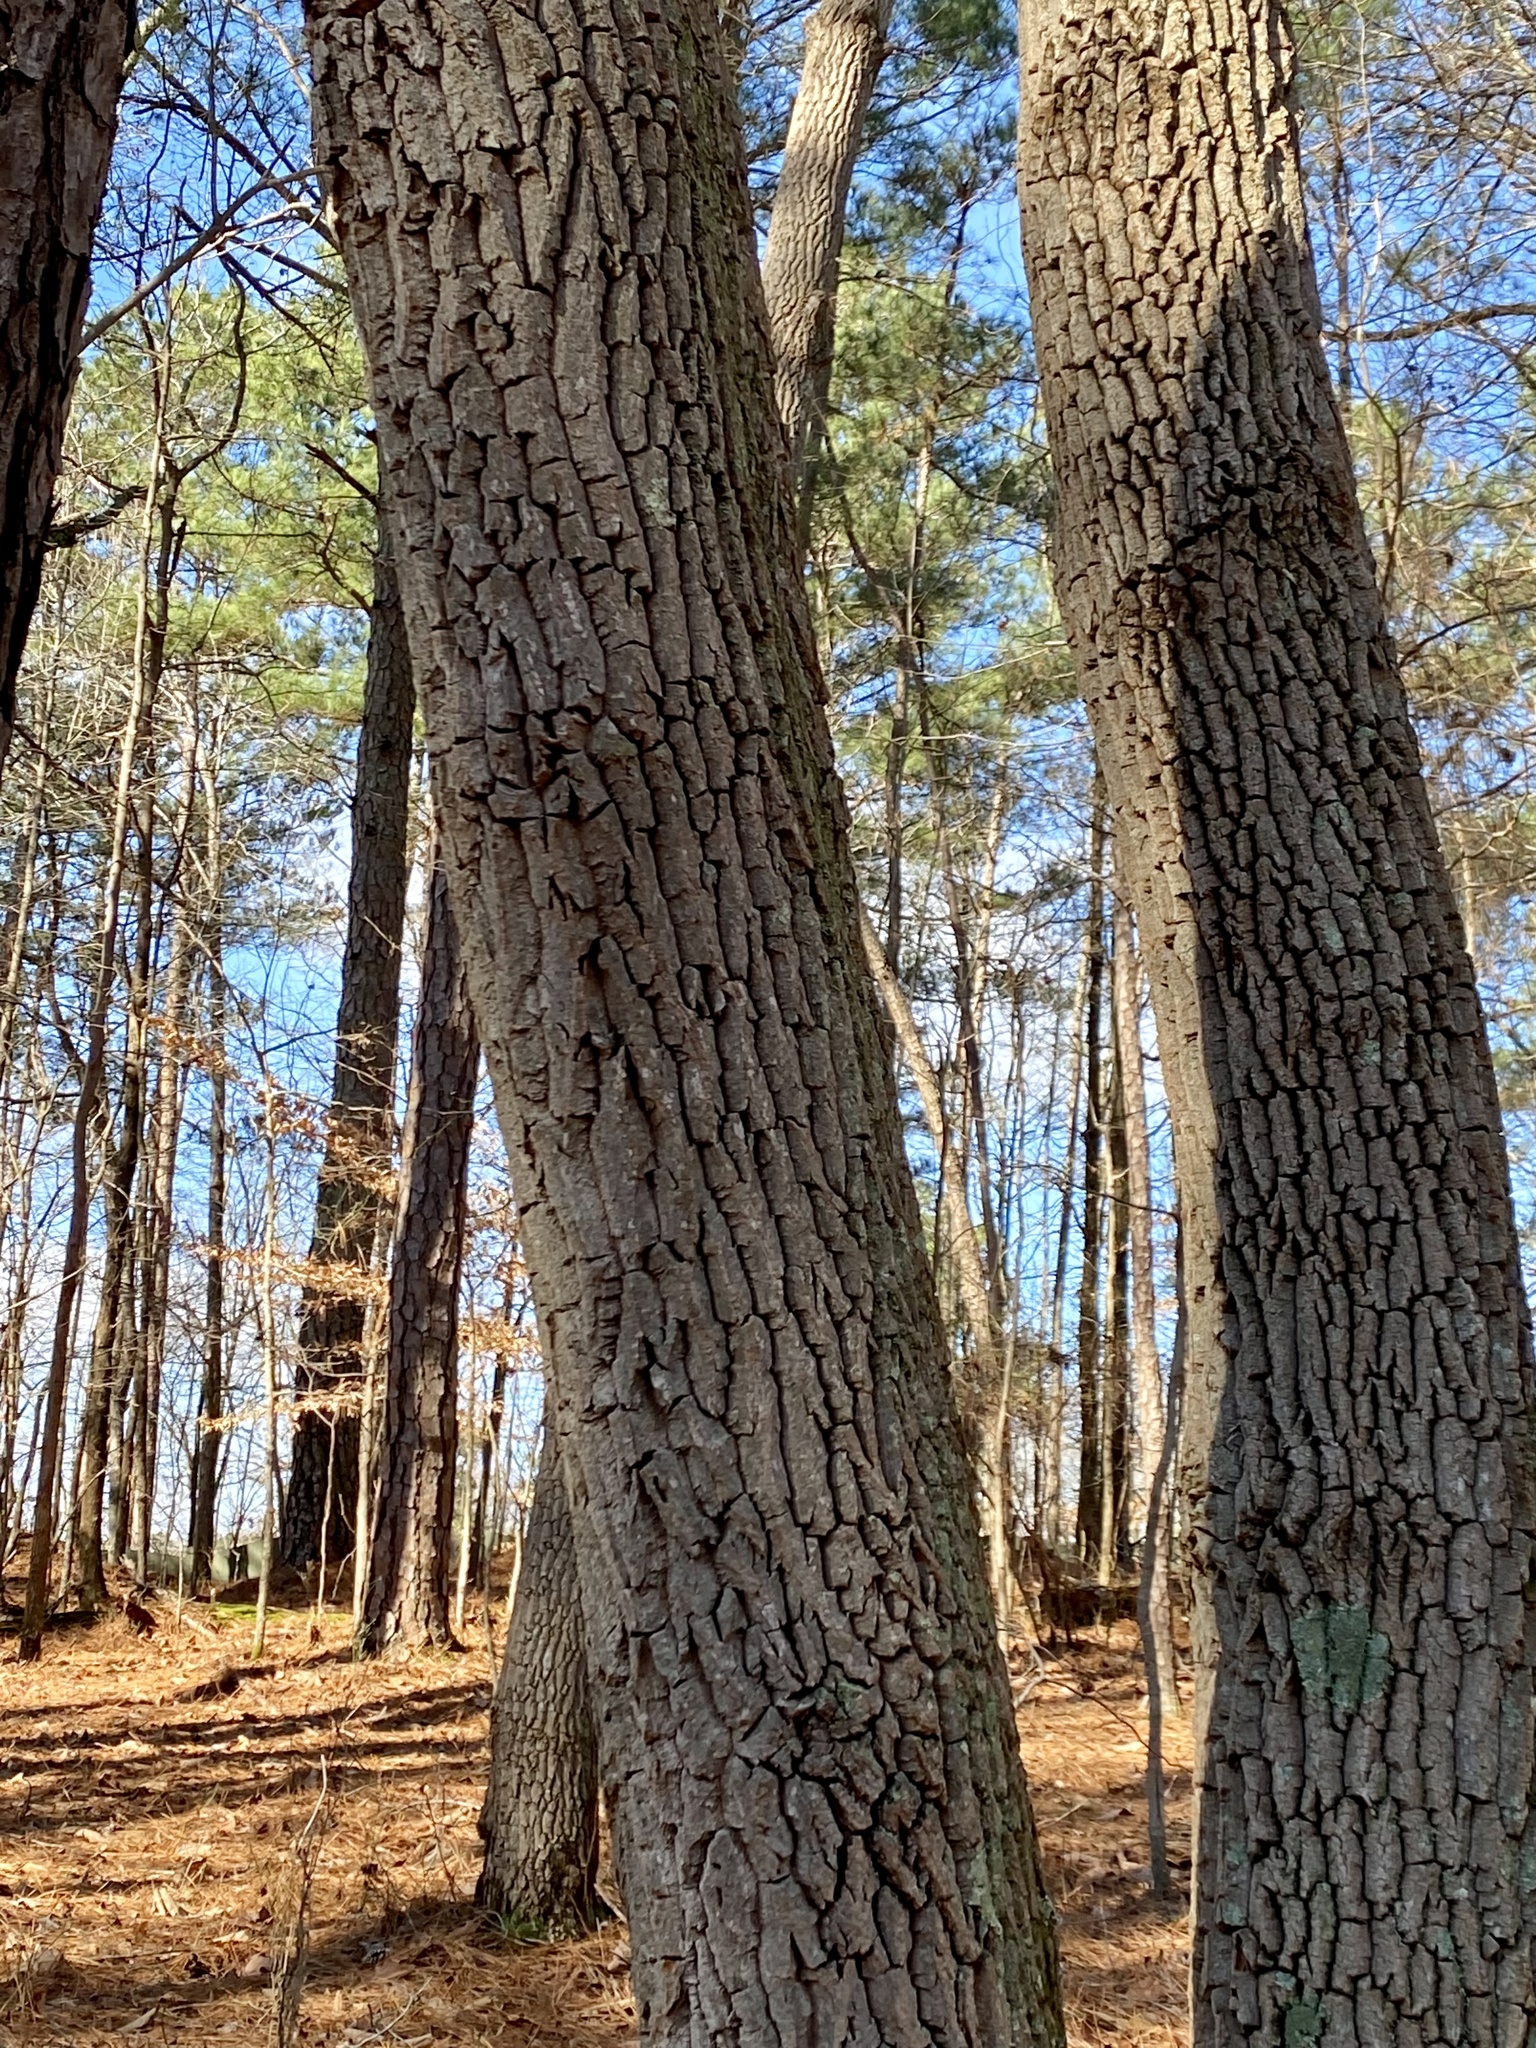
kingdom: Plantae
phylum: Tracheophyta
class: Magnoliopsida
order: Ericales
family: Ericaceae
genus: Oxydendrum
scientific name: Oxydendrum arboreum
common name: Sourwood
